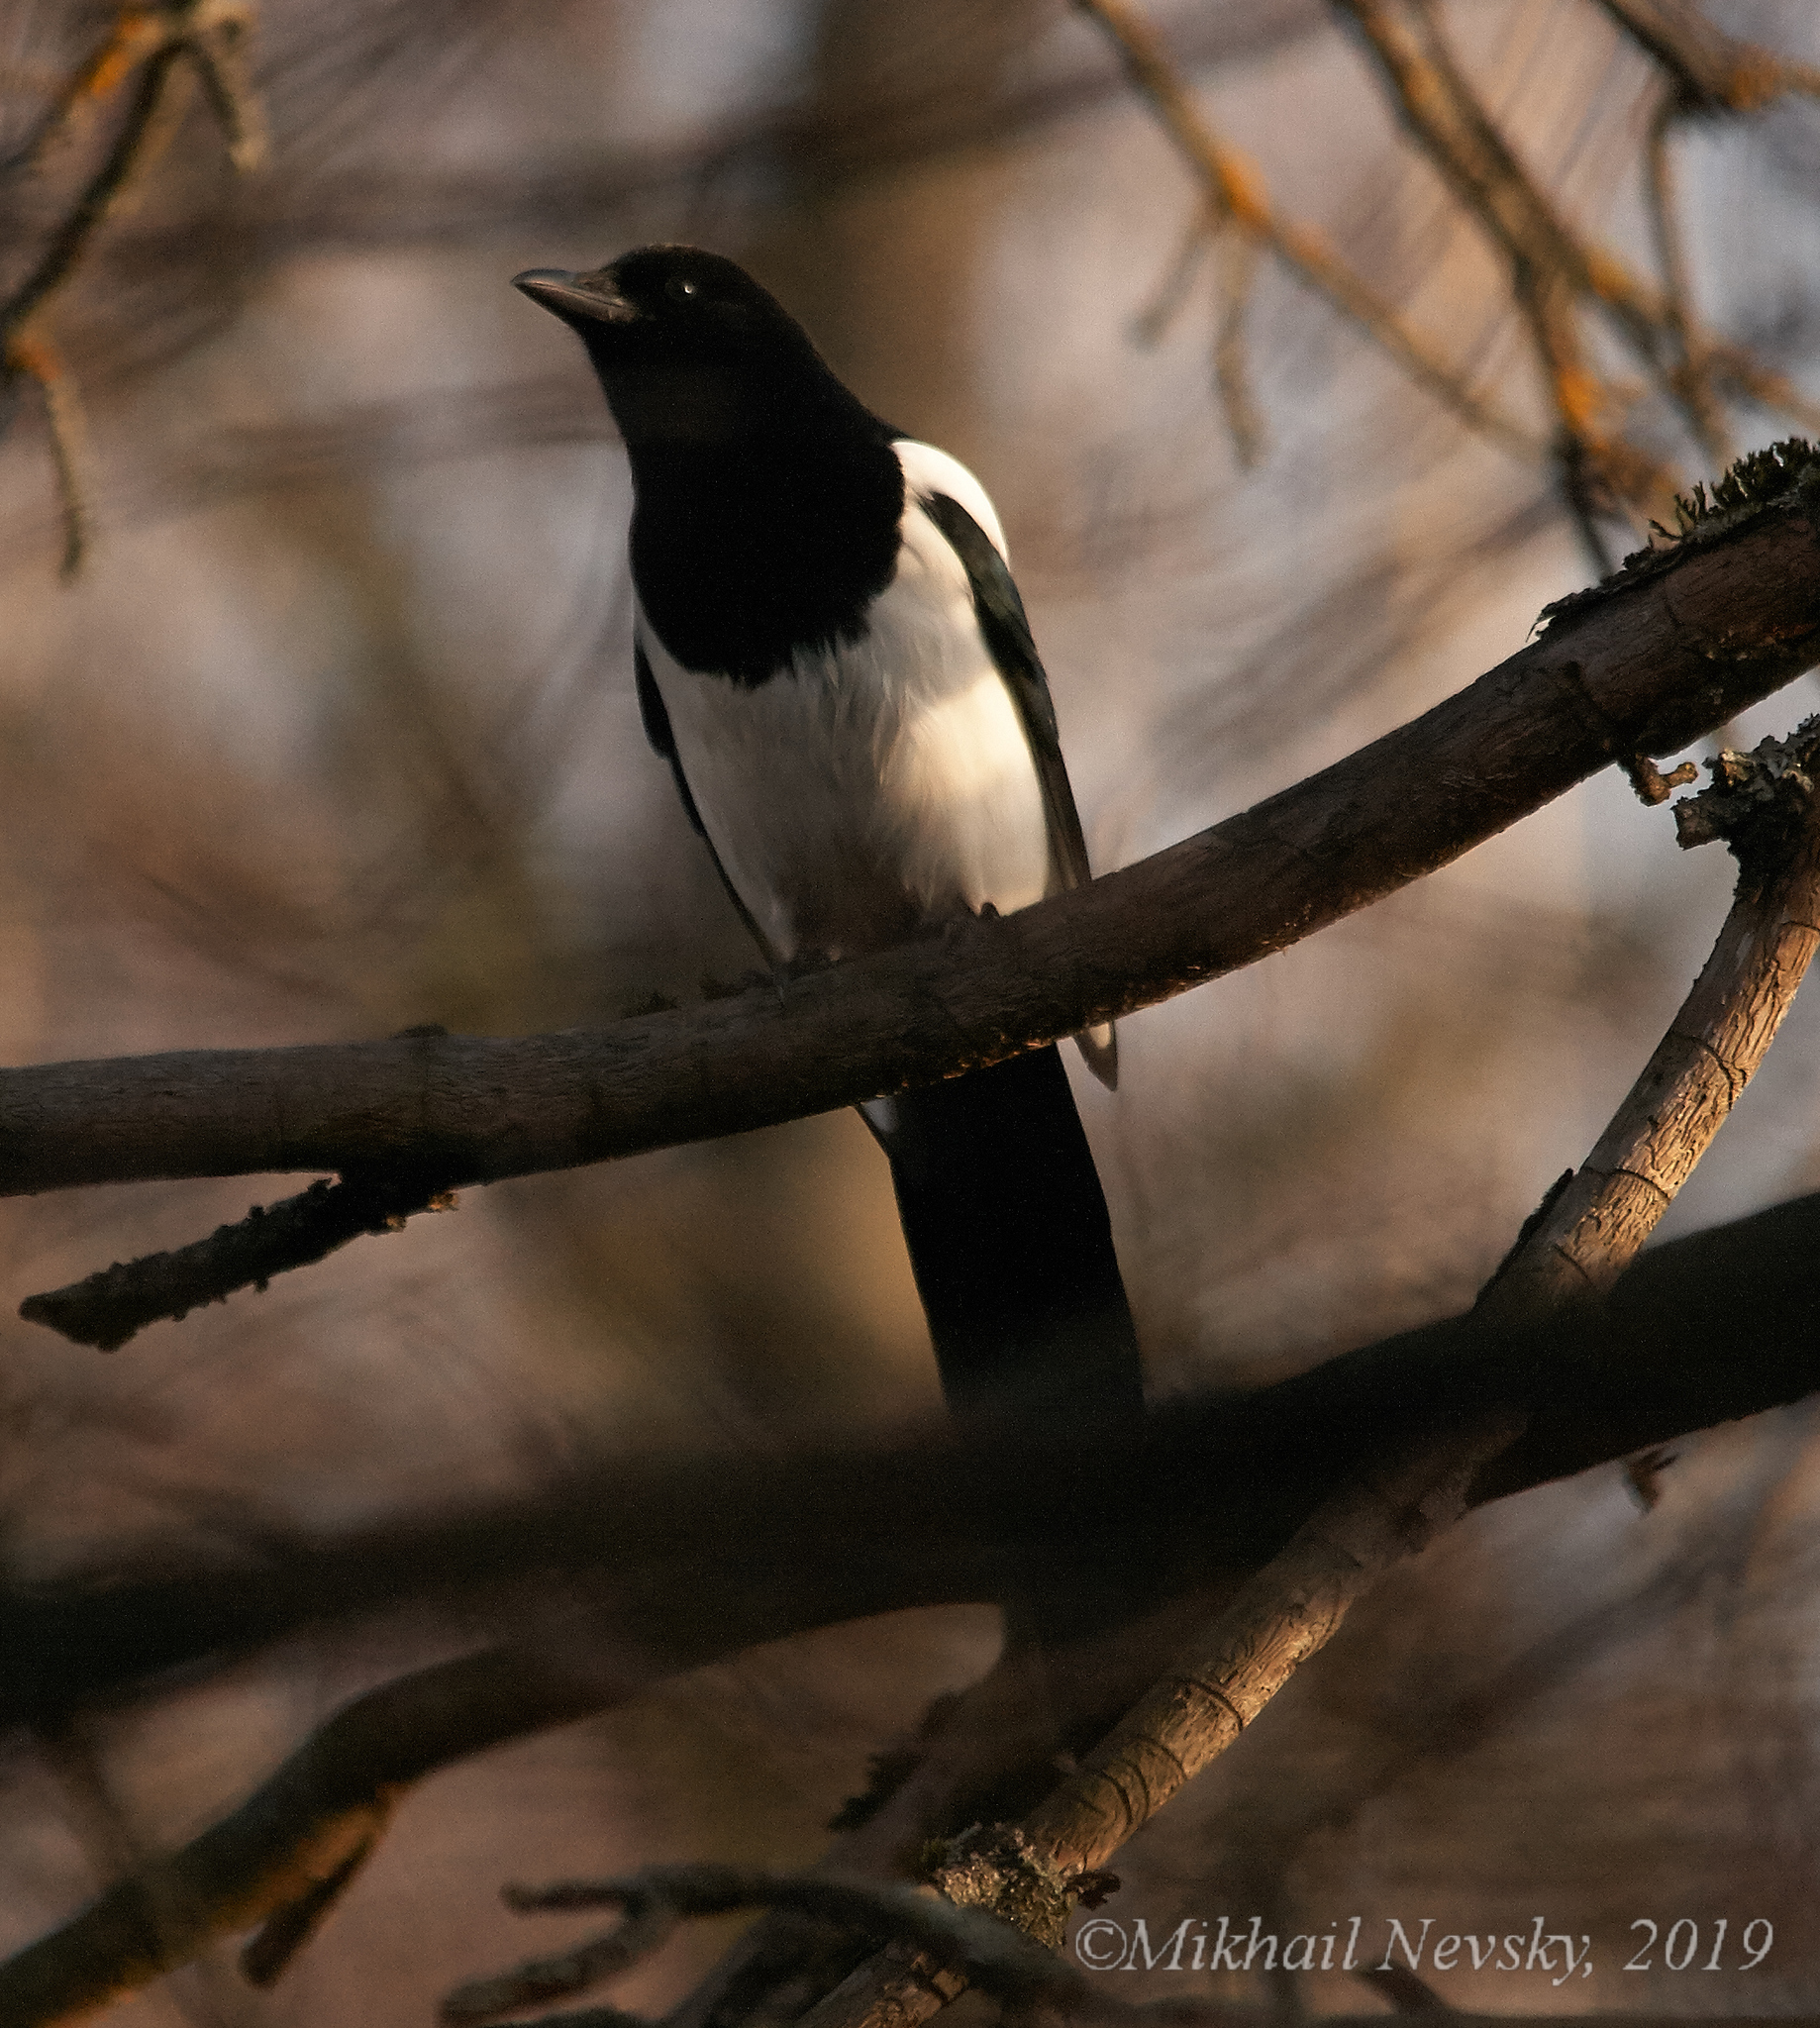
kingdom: Animalia
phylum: Chordata
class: Aves
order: Passeriformes
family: Corvidae
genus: Pica
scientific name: Pica pica
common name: Eurasian magpie
